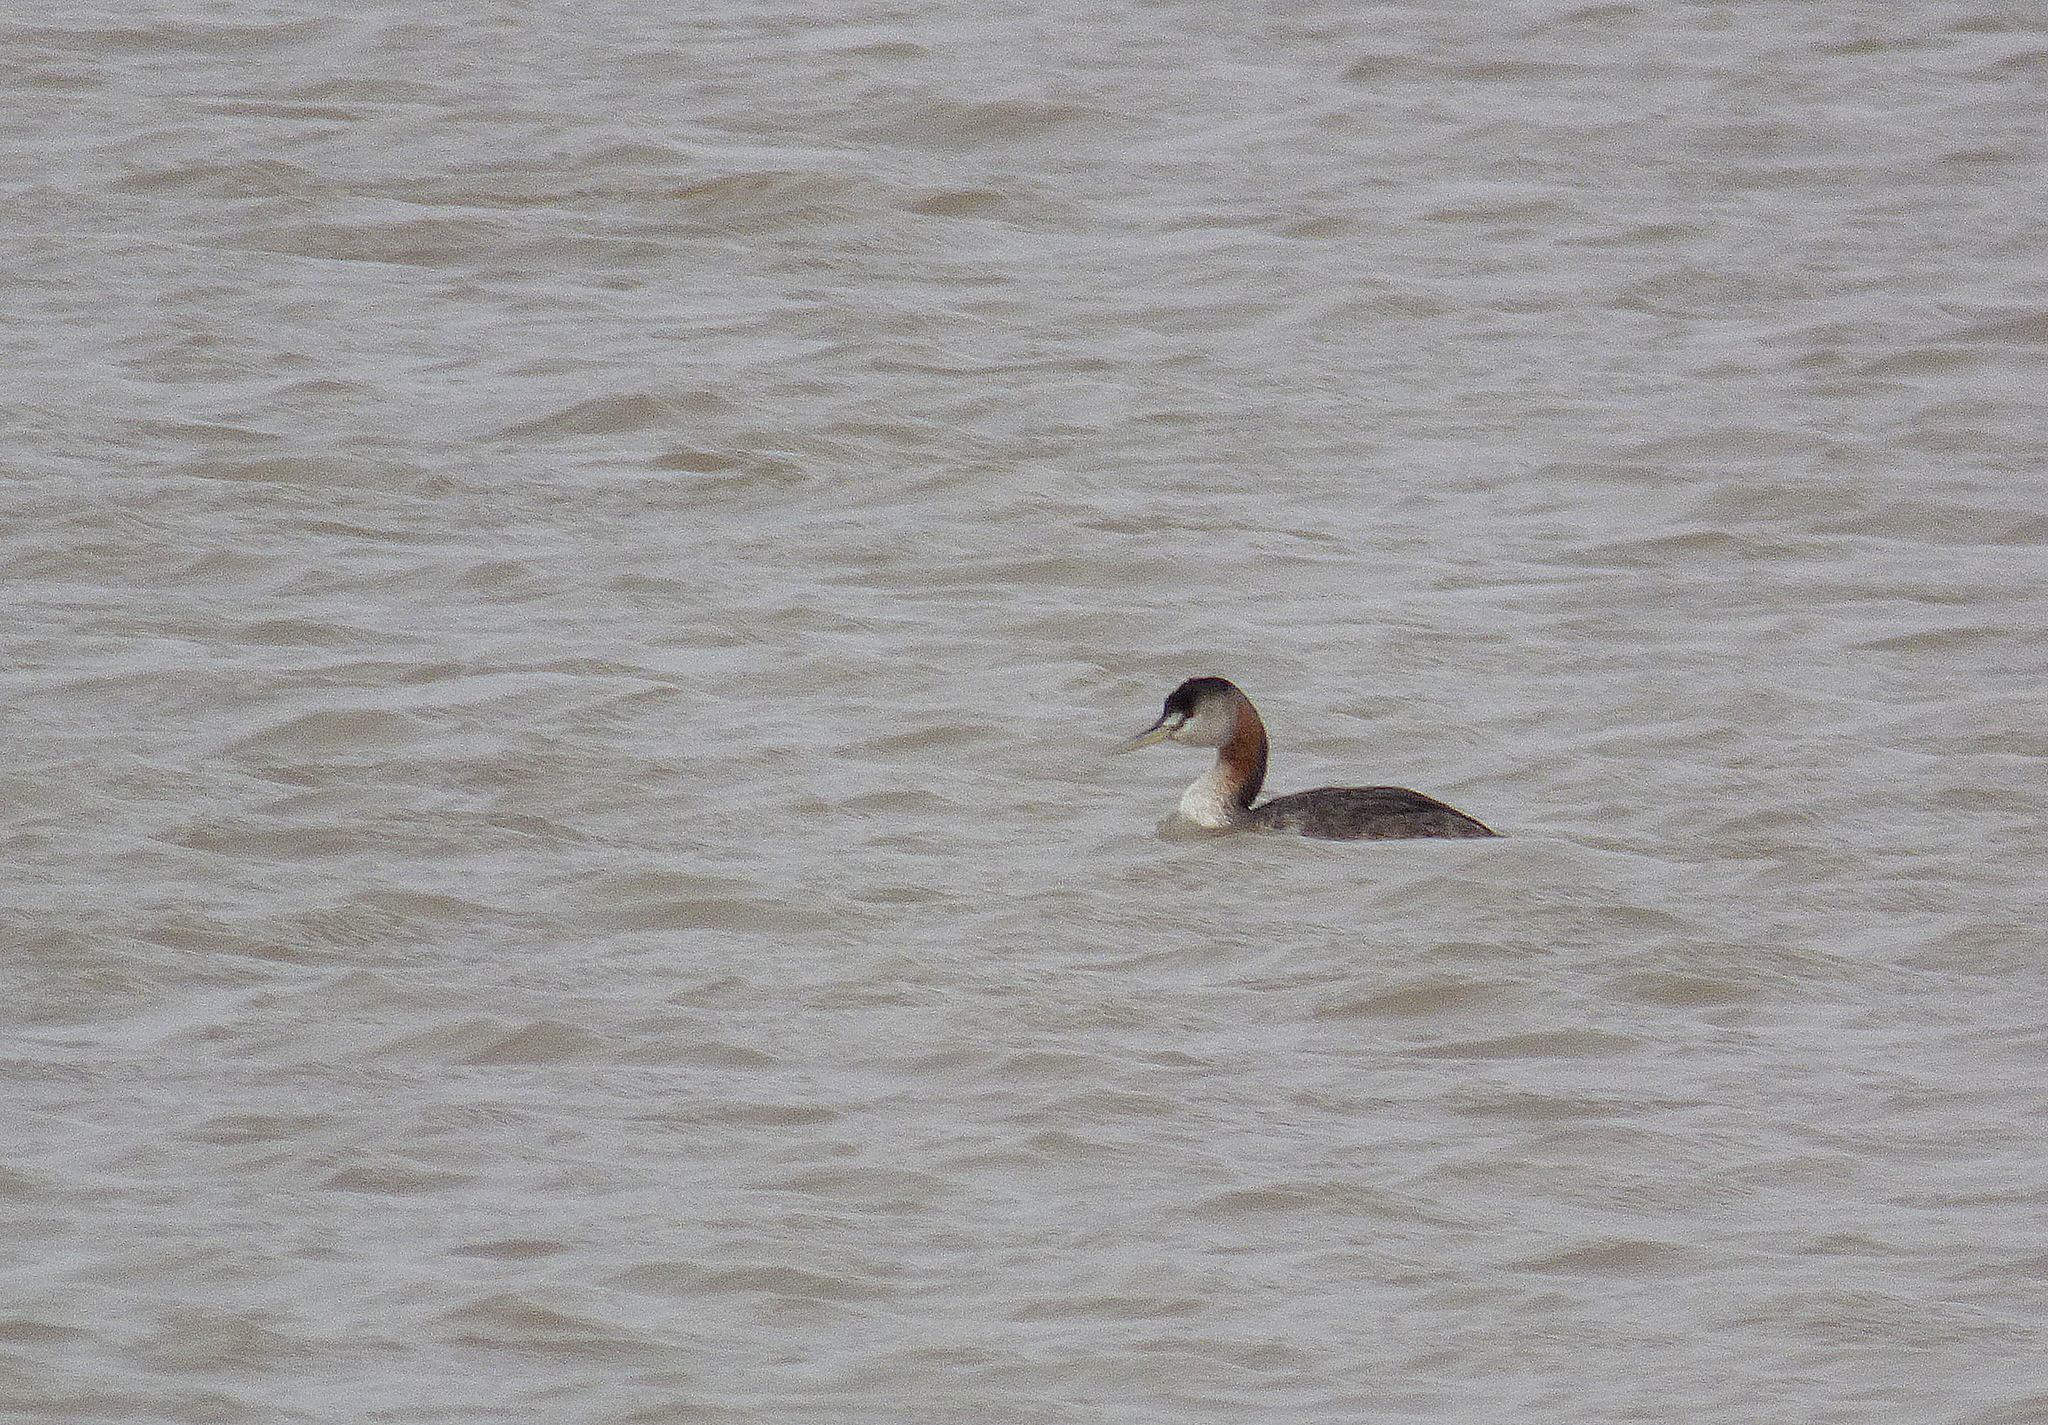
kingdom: Animalia
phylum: Chordata
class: Aves
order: Podicipediformes
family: Podicipedidae
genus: Podiceps
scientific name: Podiceps major
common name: Great grebe
